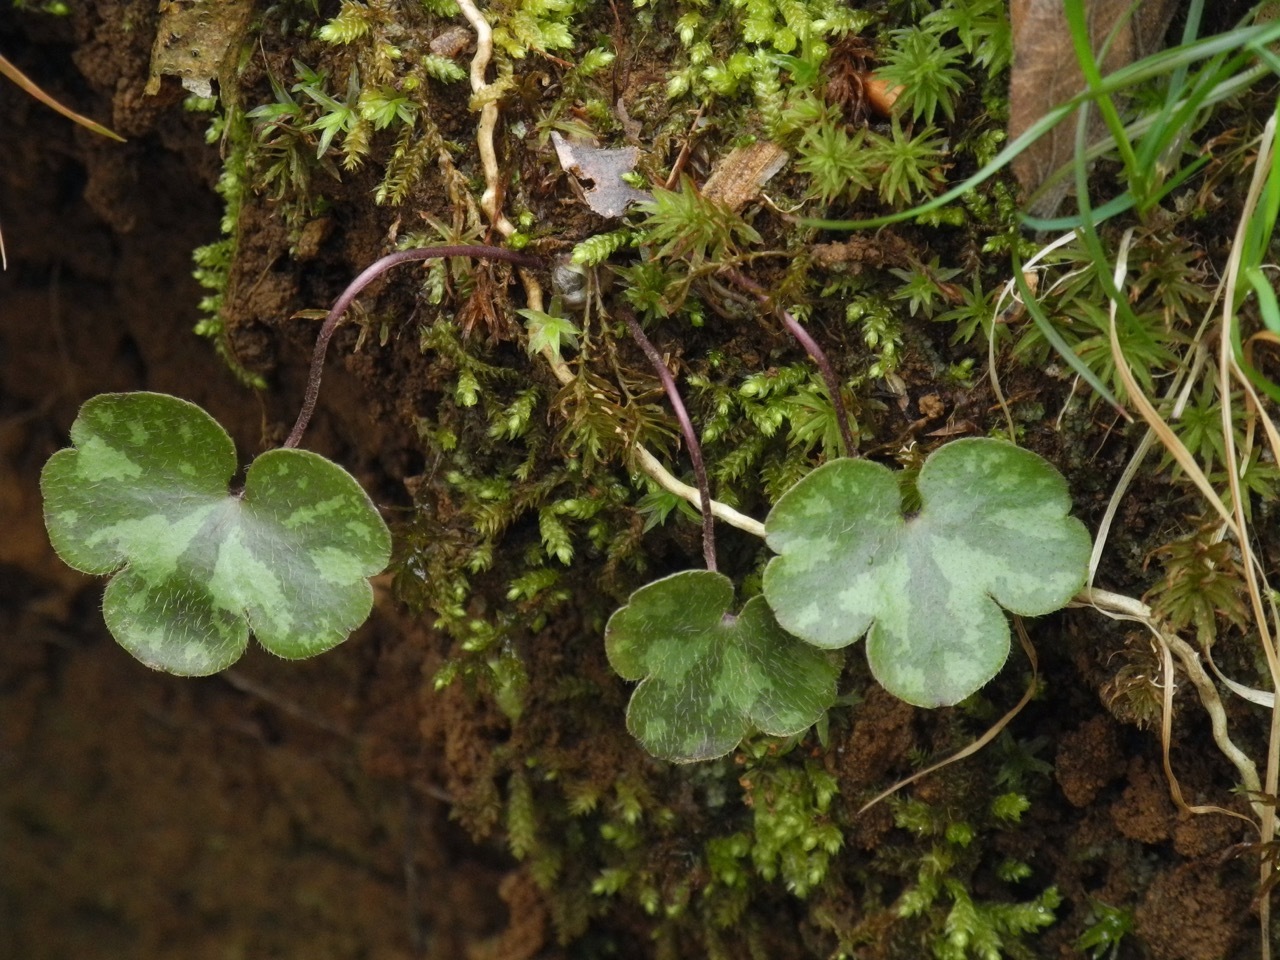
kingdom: Plantae
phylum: Tracheophyta
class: Magnoliopsida
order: Ranunculales
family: Ranunculaceae
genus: Hepatica
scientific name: Hepatica americana
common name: American hepatica
